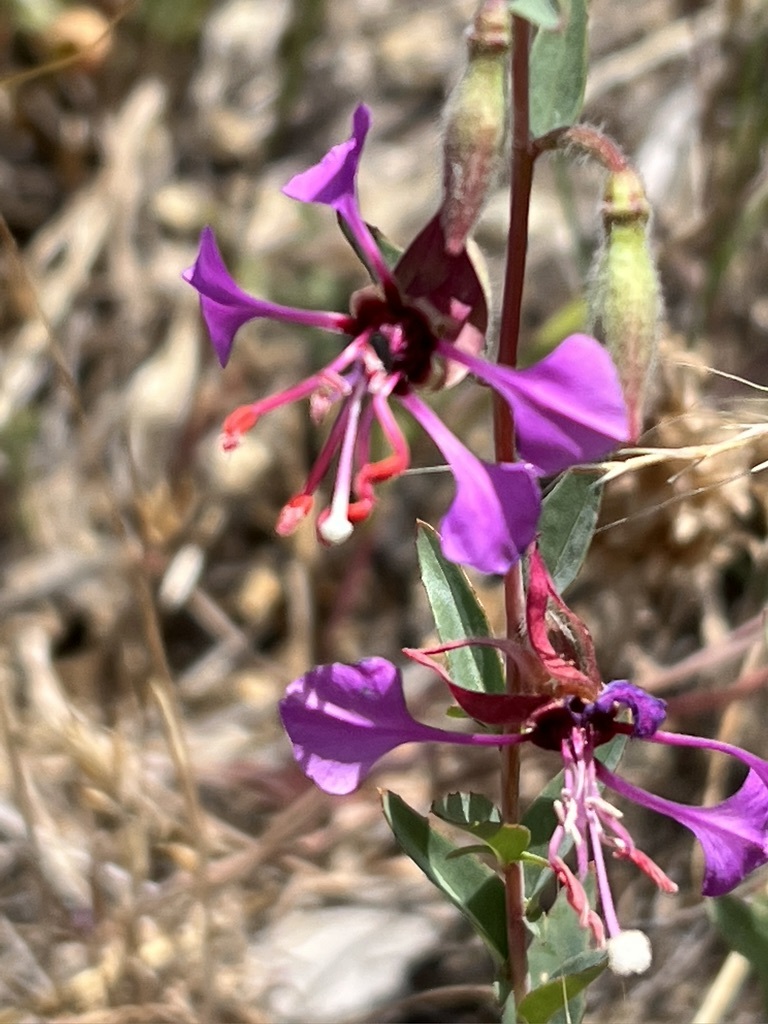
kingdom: Plantae
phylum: Tracheophyta
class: Magnoliopsida
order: Myrtales
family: Onagraceae
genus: Clarkia
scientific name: Clarkia unguiculata
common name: Clarkia
